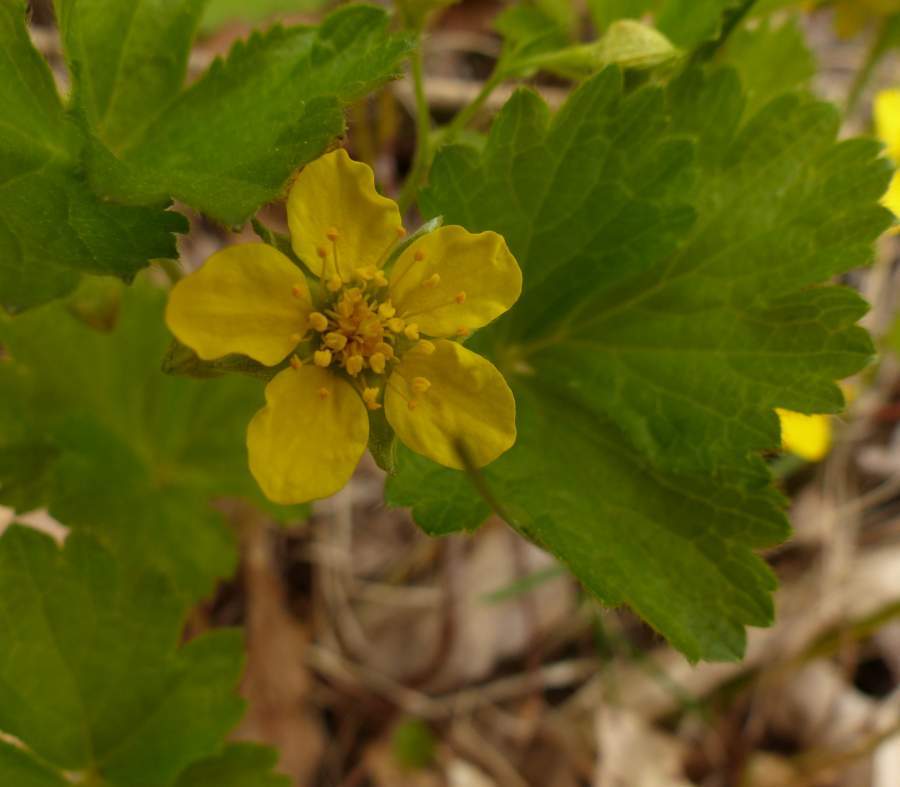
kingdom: Plantae
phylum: Tracheophyta
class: Magnoliopsida
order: Rosales
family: Rosaceae
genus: Geum
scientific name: Geum fragarioides
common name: Appalachian barren strawberry
